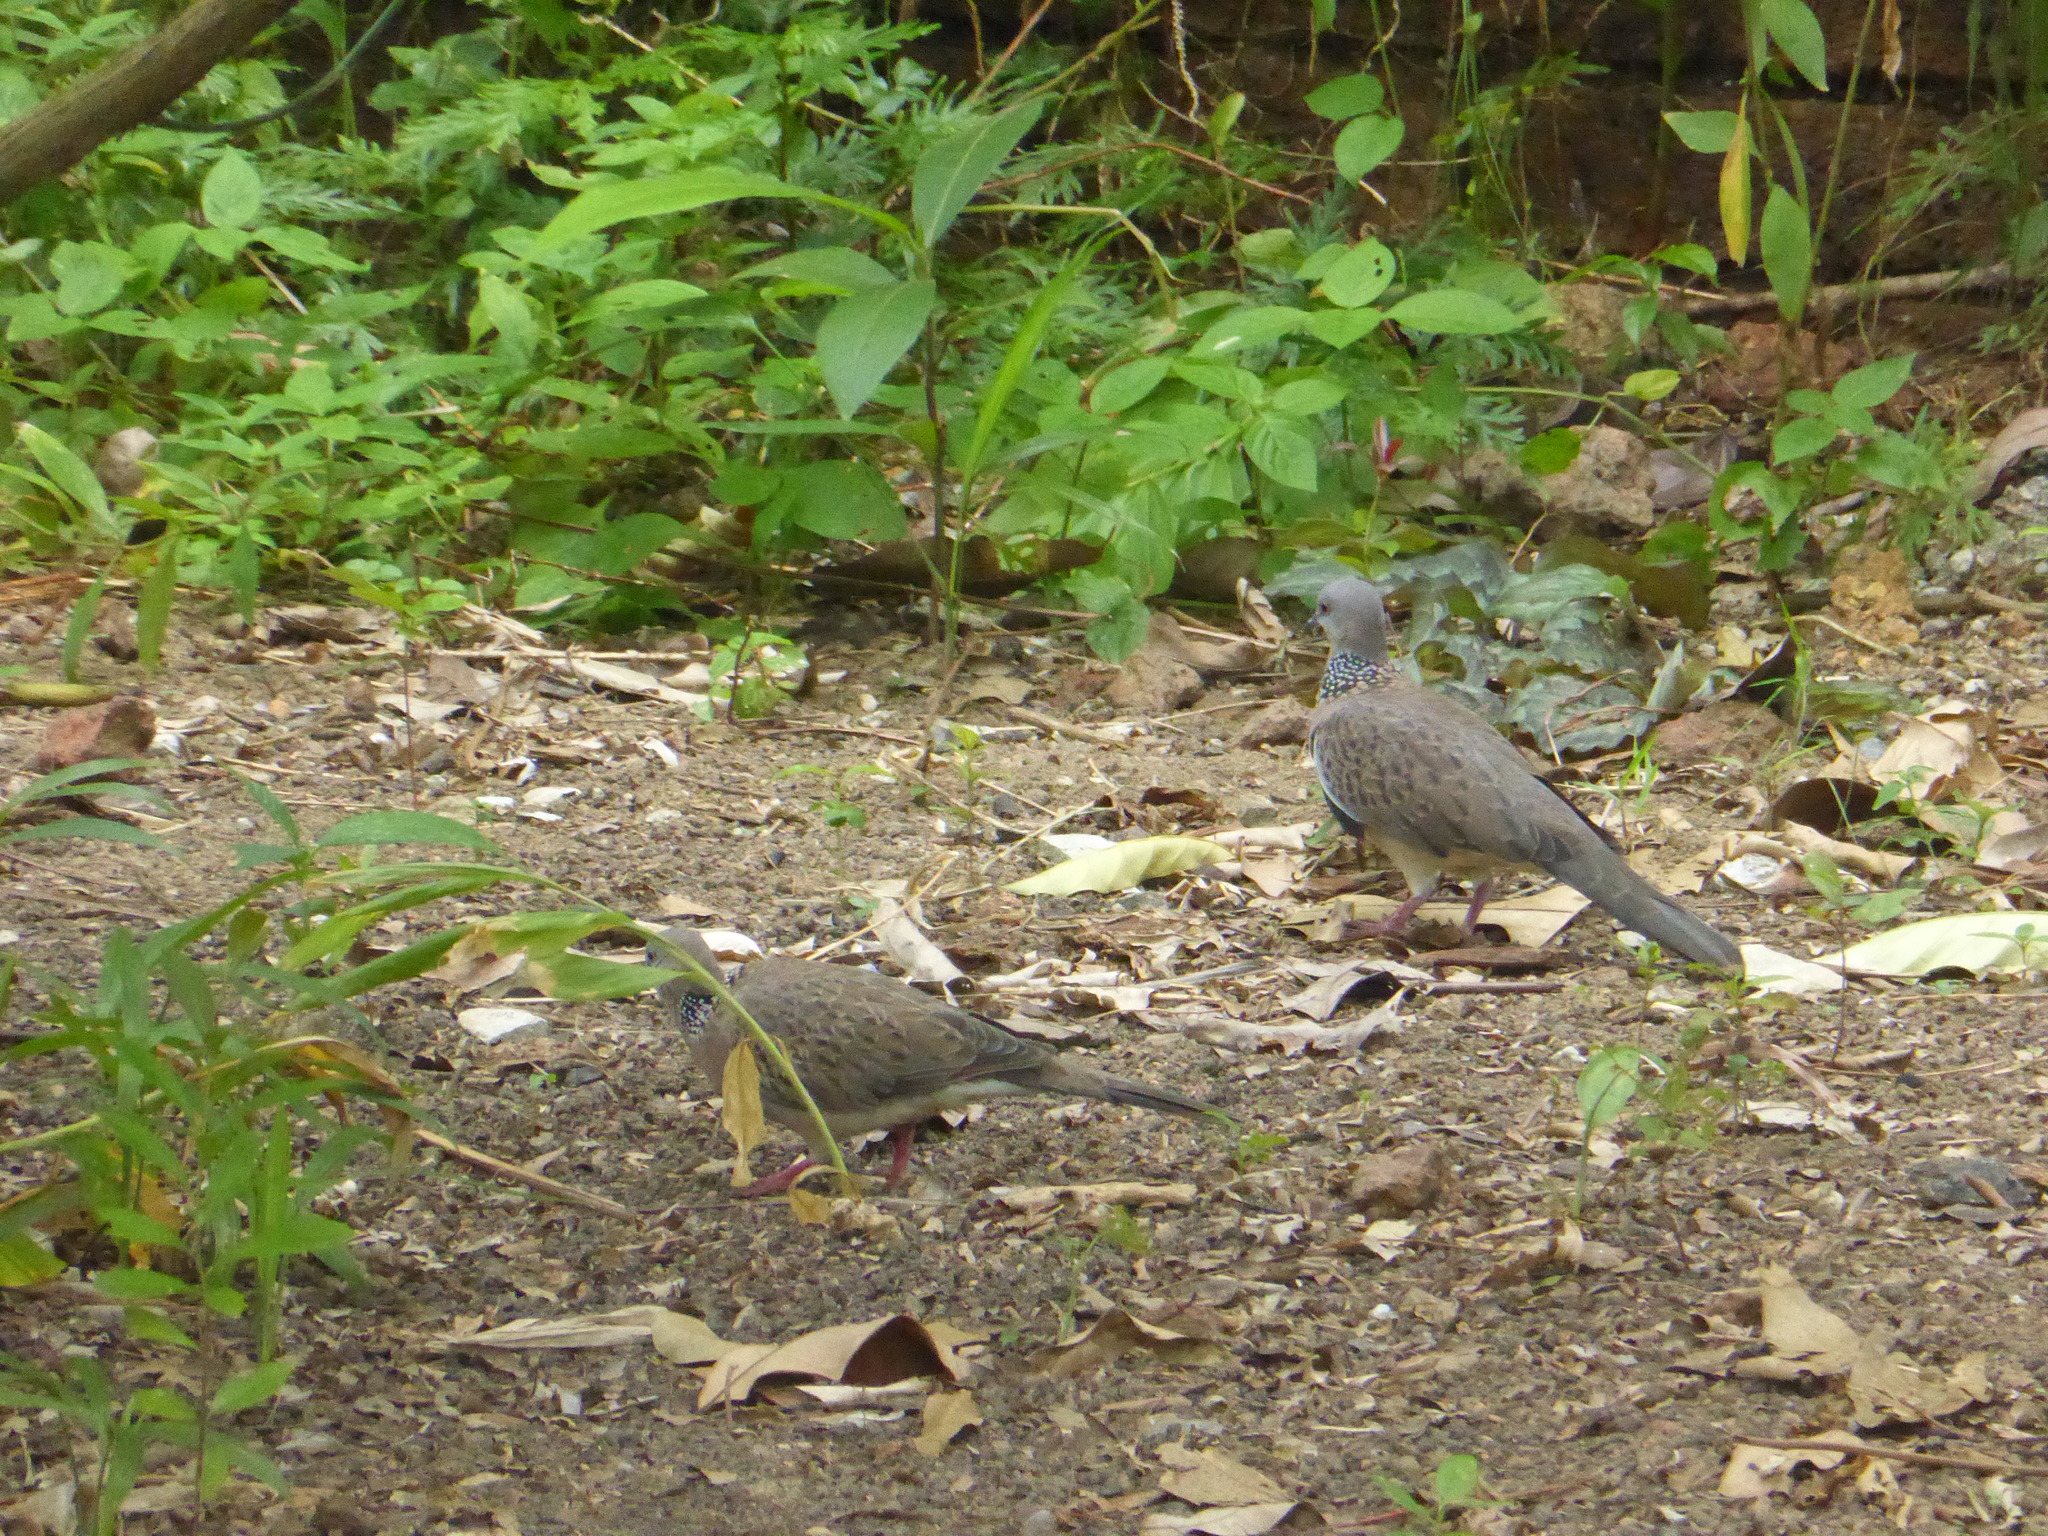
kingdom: Animalia
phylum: Chordata
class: Aves
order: Columbiformes
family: Columbidae
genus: Spilopelia
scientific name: Spilopelia chinensis
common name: Spotted dove
